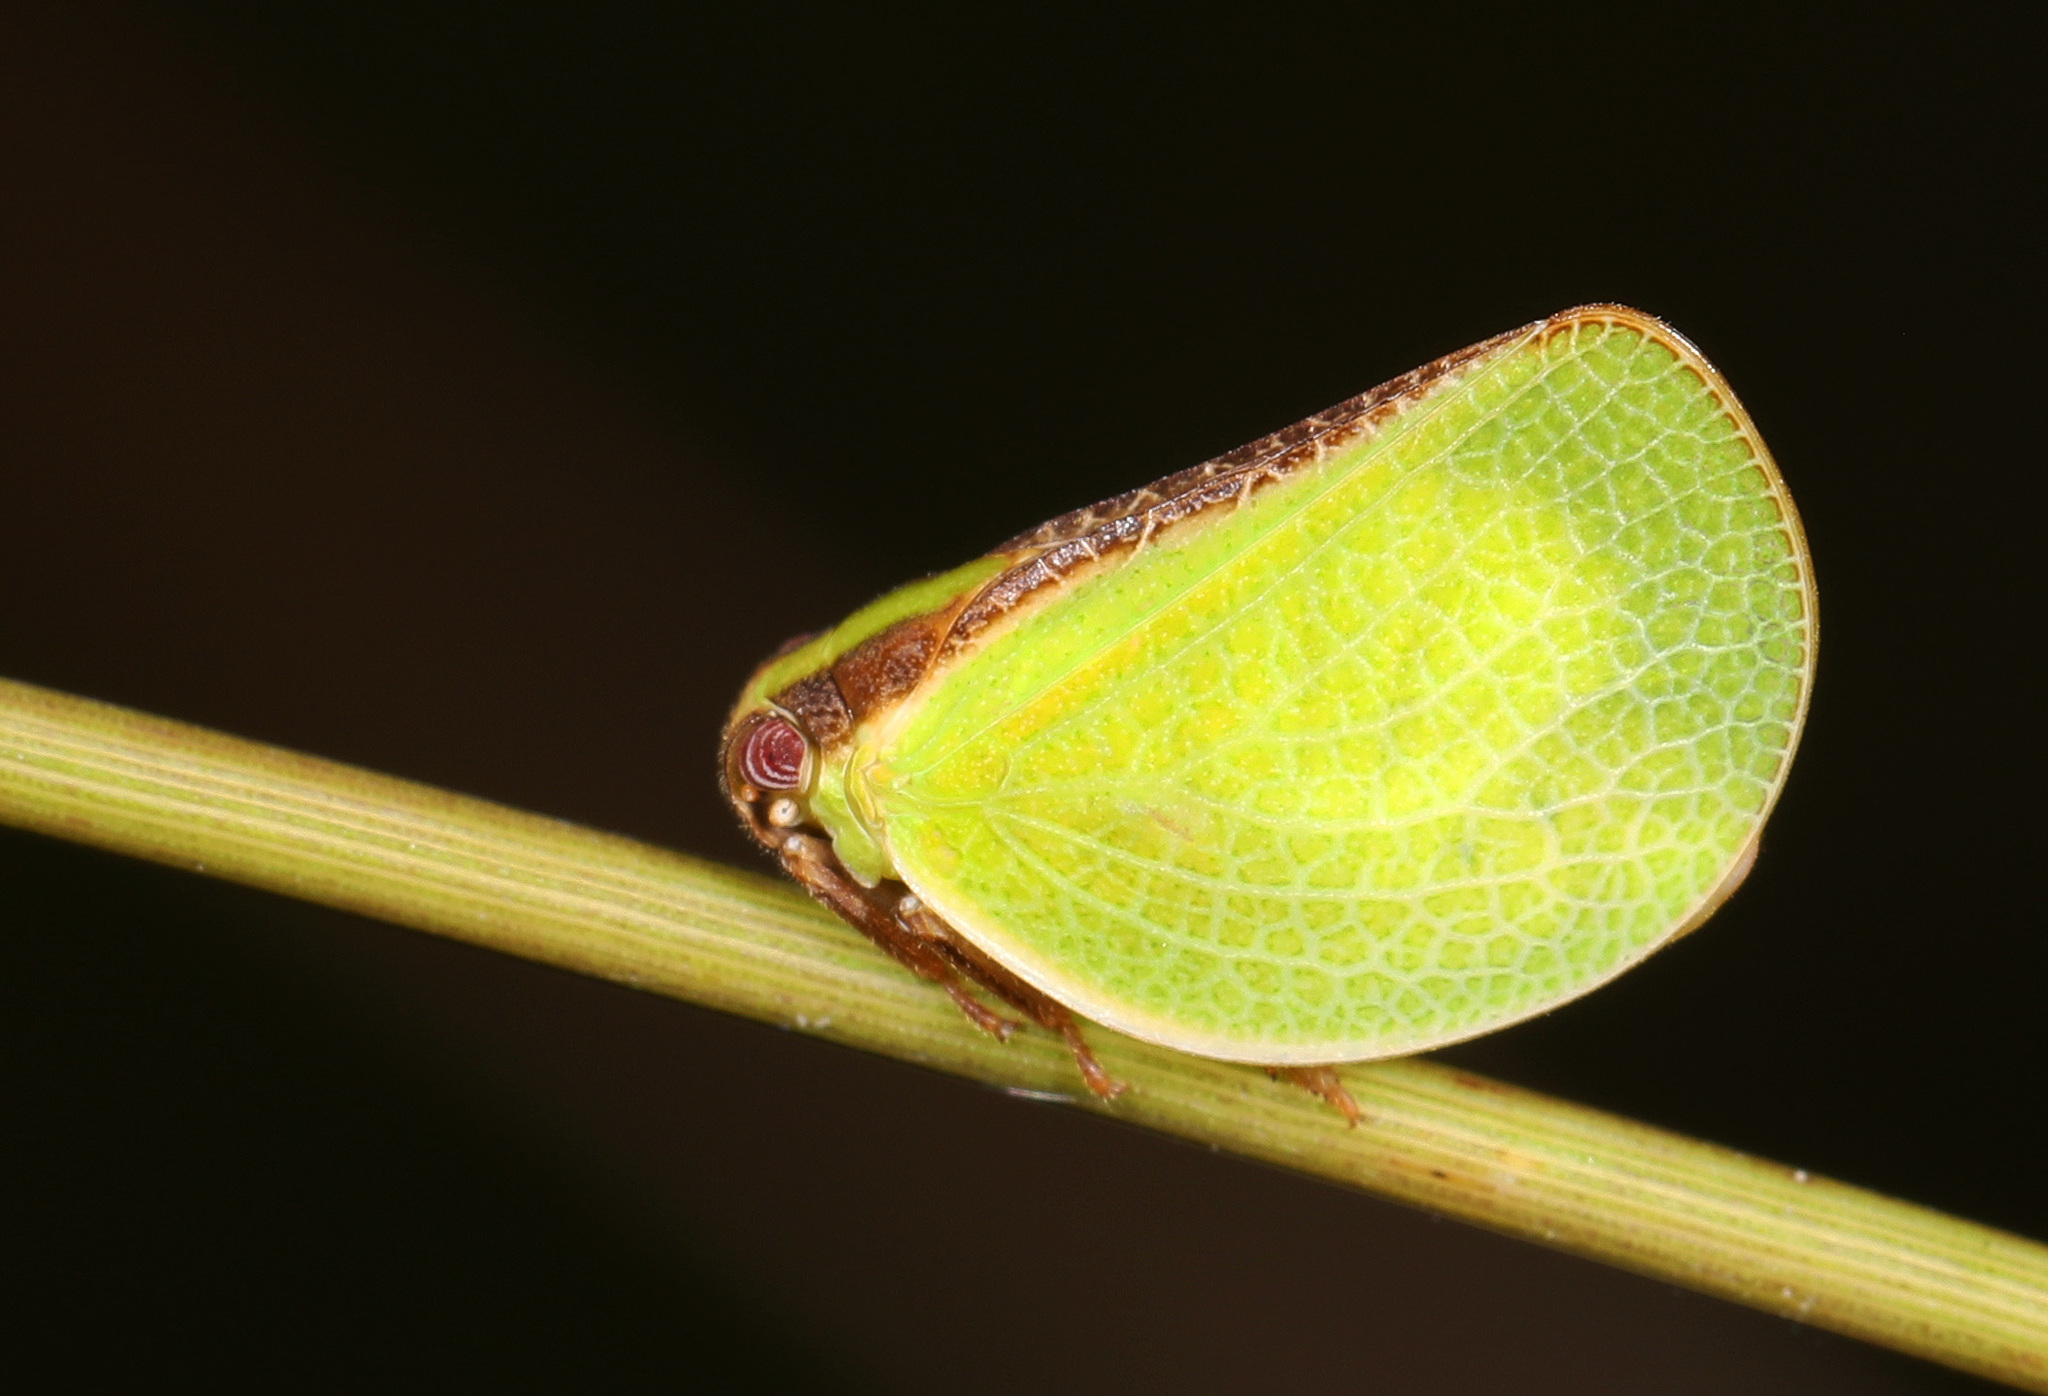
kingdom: Animalia
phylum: Arthropoda
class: Insecta
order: Hemiptera
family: Acanaloniidae
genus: Acanalonia
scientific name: Acanalonia bivittata
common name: Two-striped planthopper
